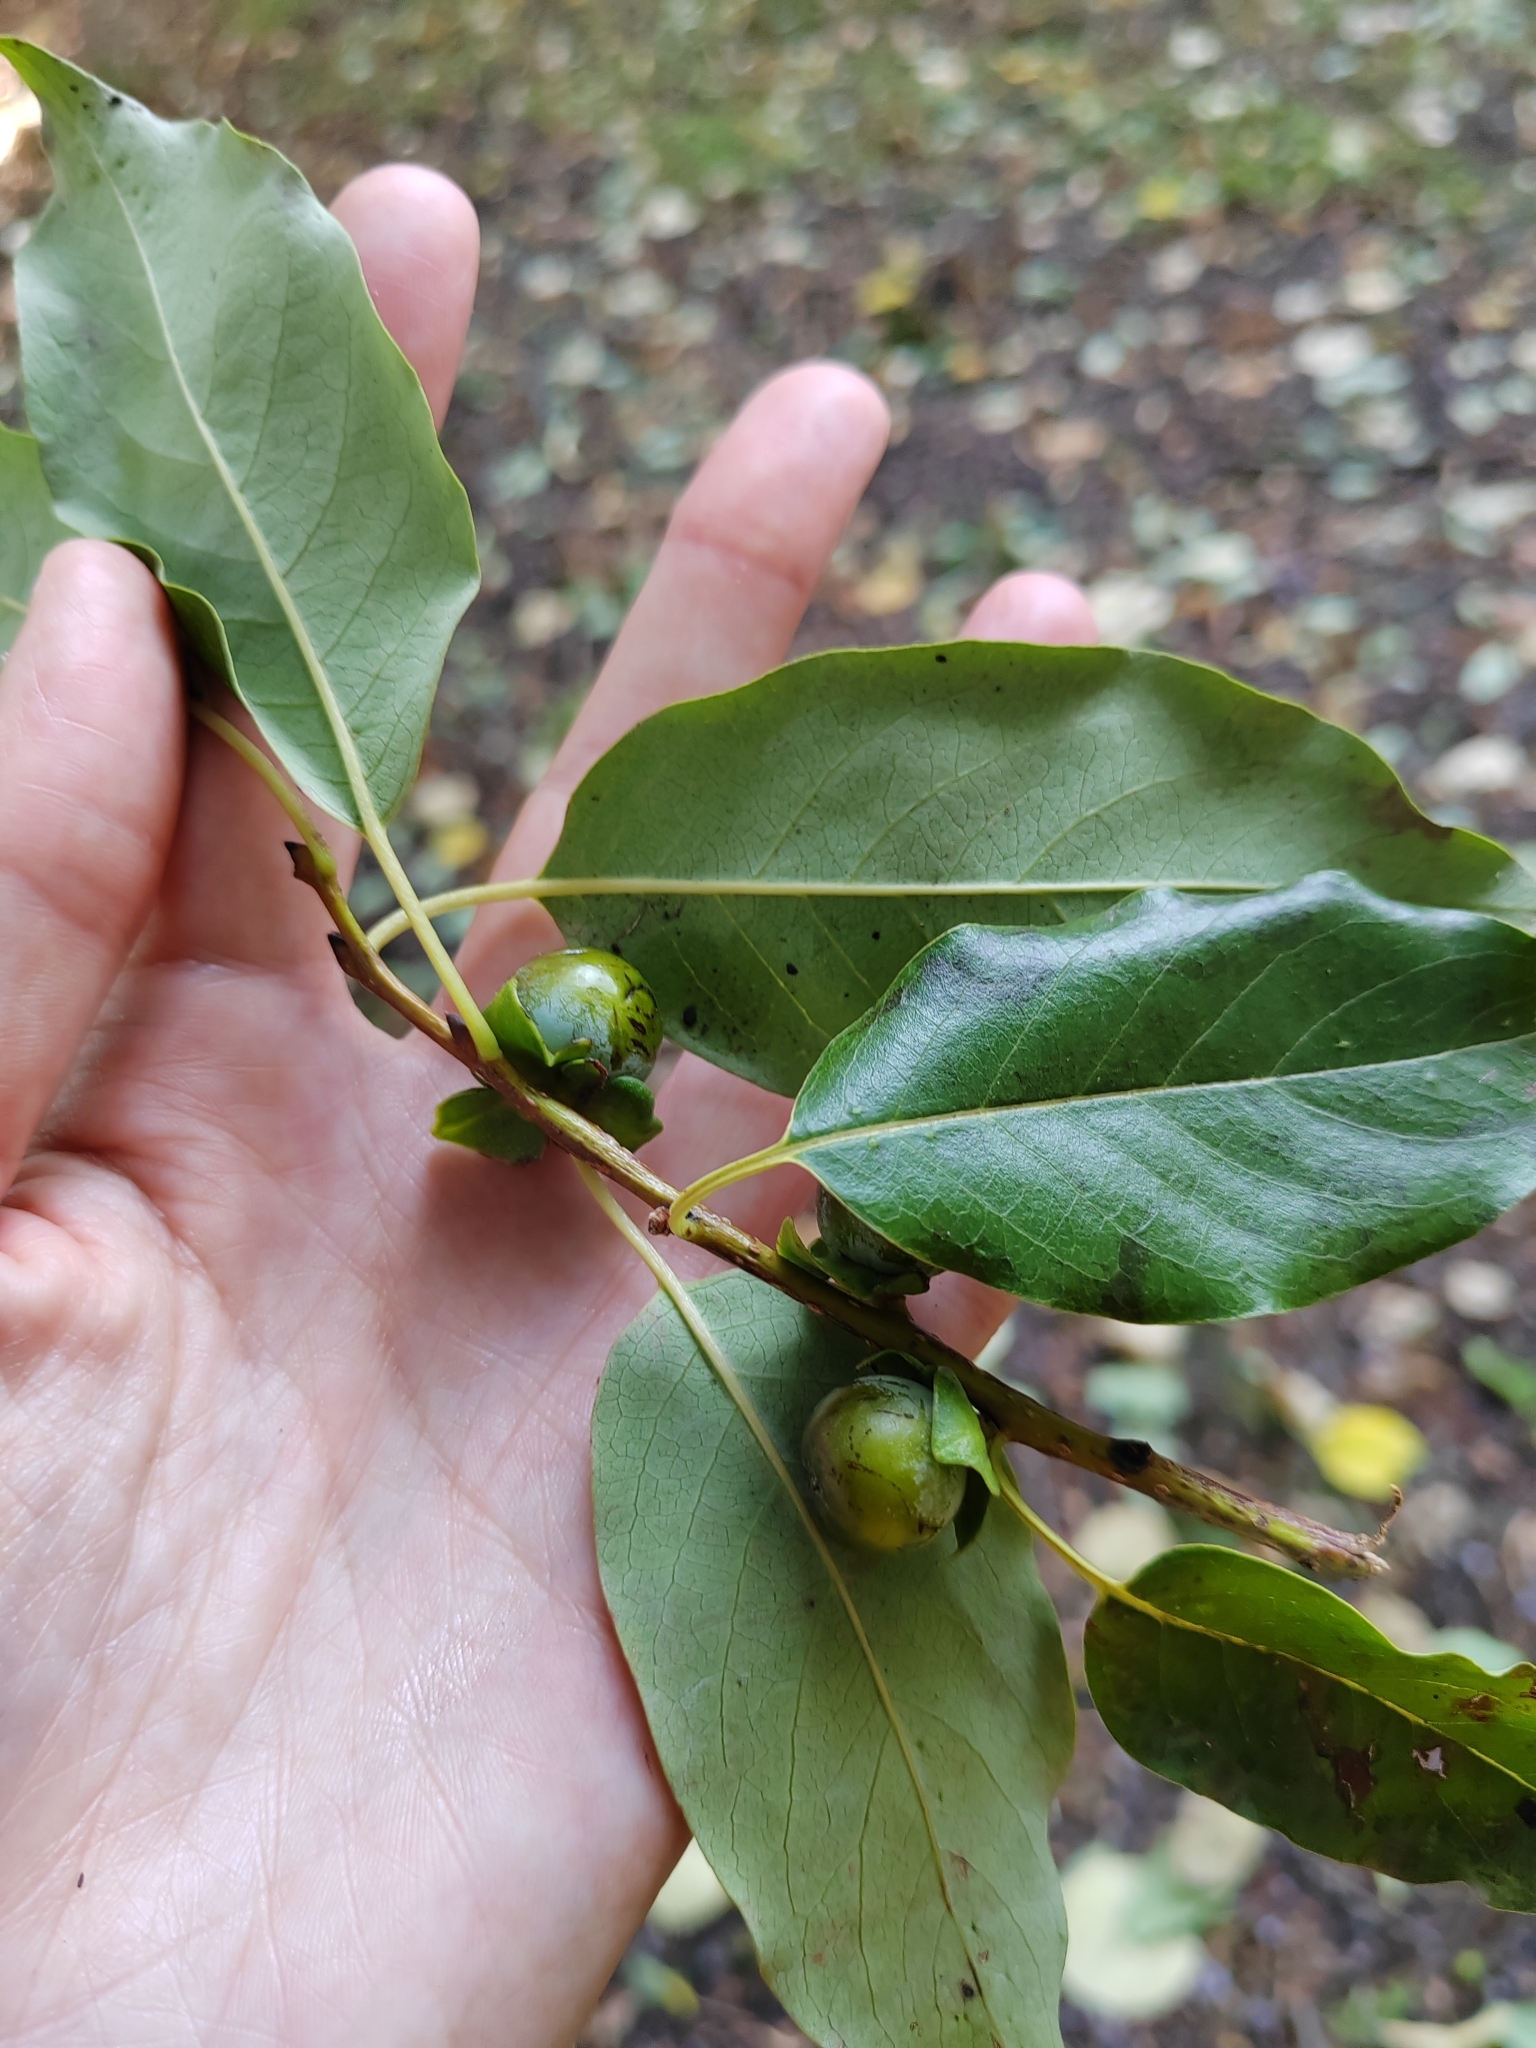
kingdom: Plantae
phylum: Tracheophyta
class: Magnoliopsida
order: Ericales
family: Ebenaceae
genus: Diospyros
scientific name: Diospyros lotus
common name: Date-plum
